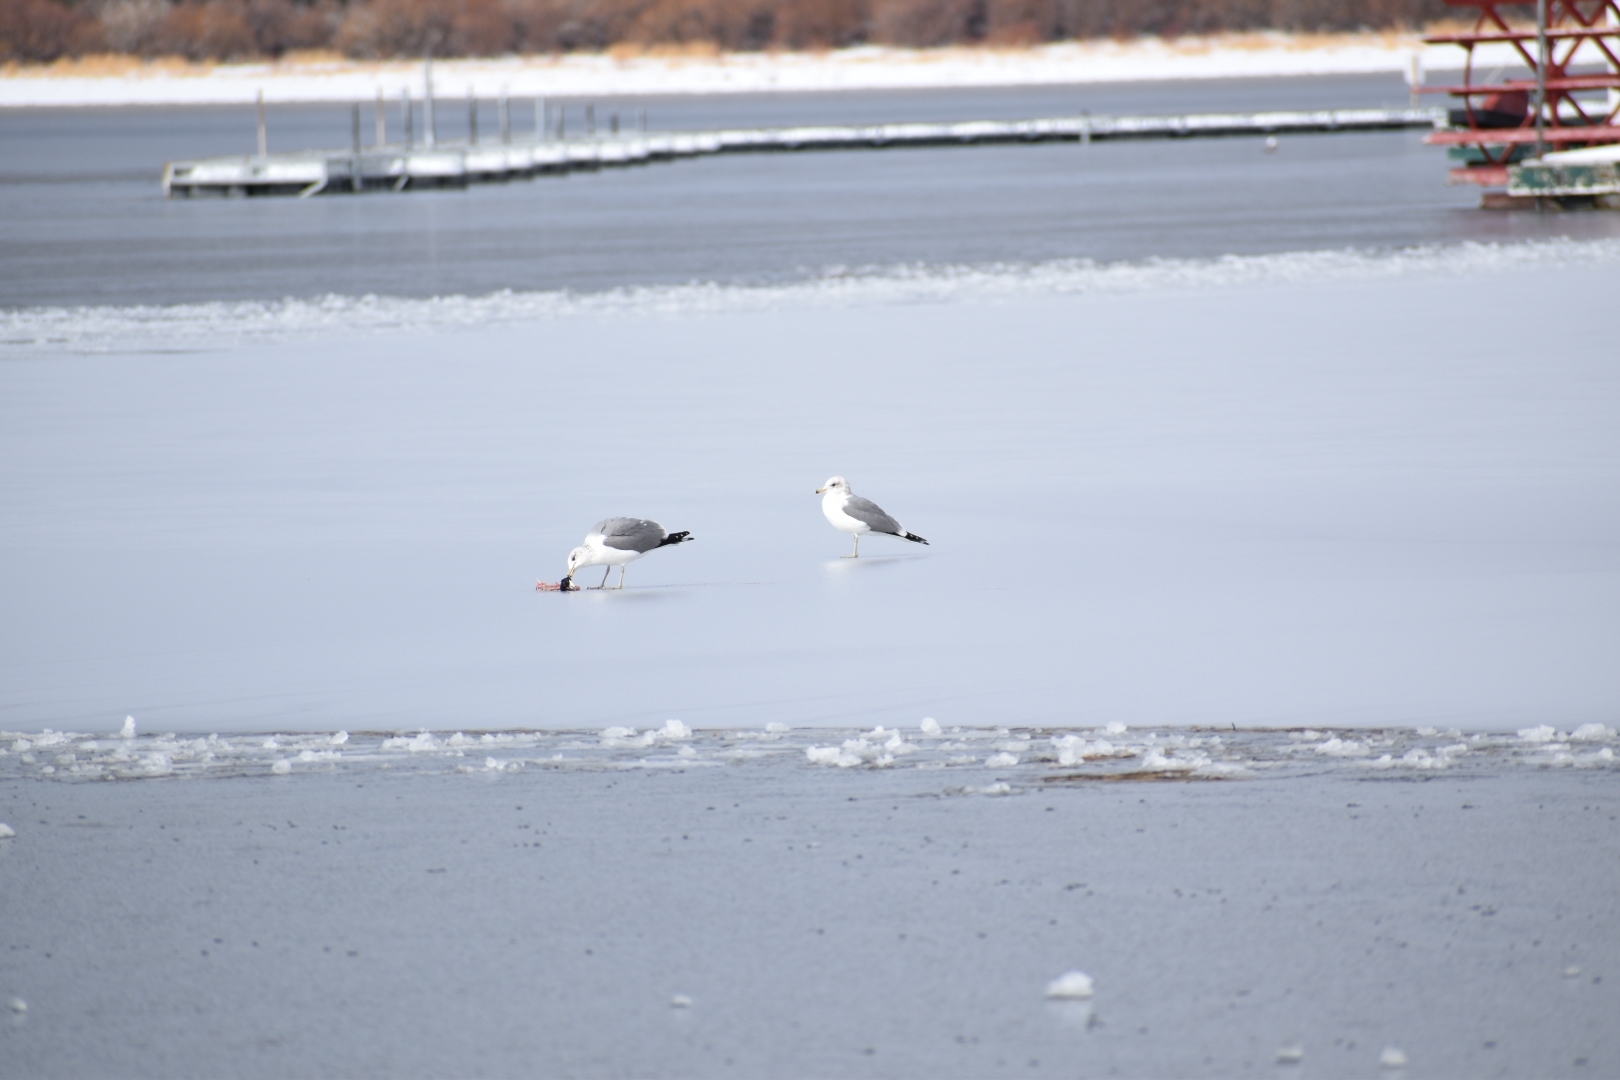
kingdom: Animalia
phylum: Chordata
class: Aves
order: Charadriiformes
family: Laridae
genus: Larus
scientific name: Larus californicus
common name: California gull
